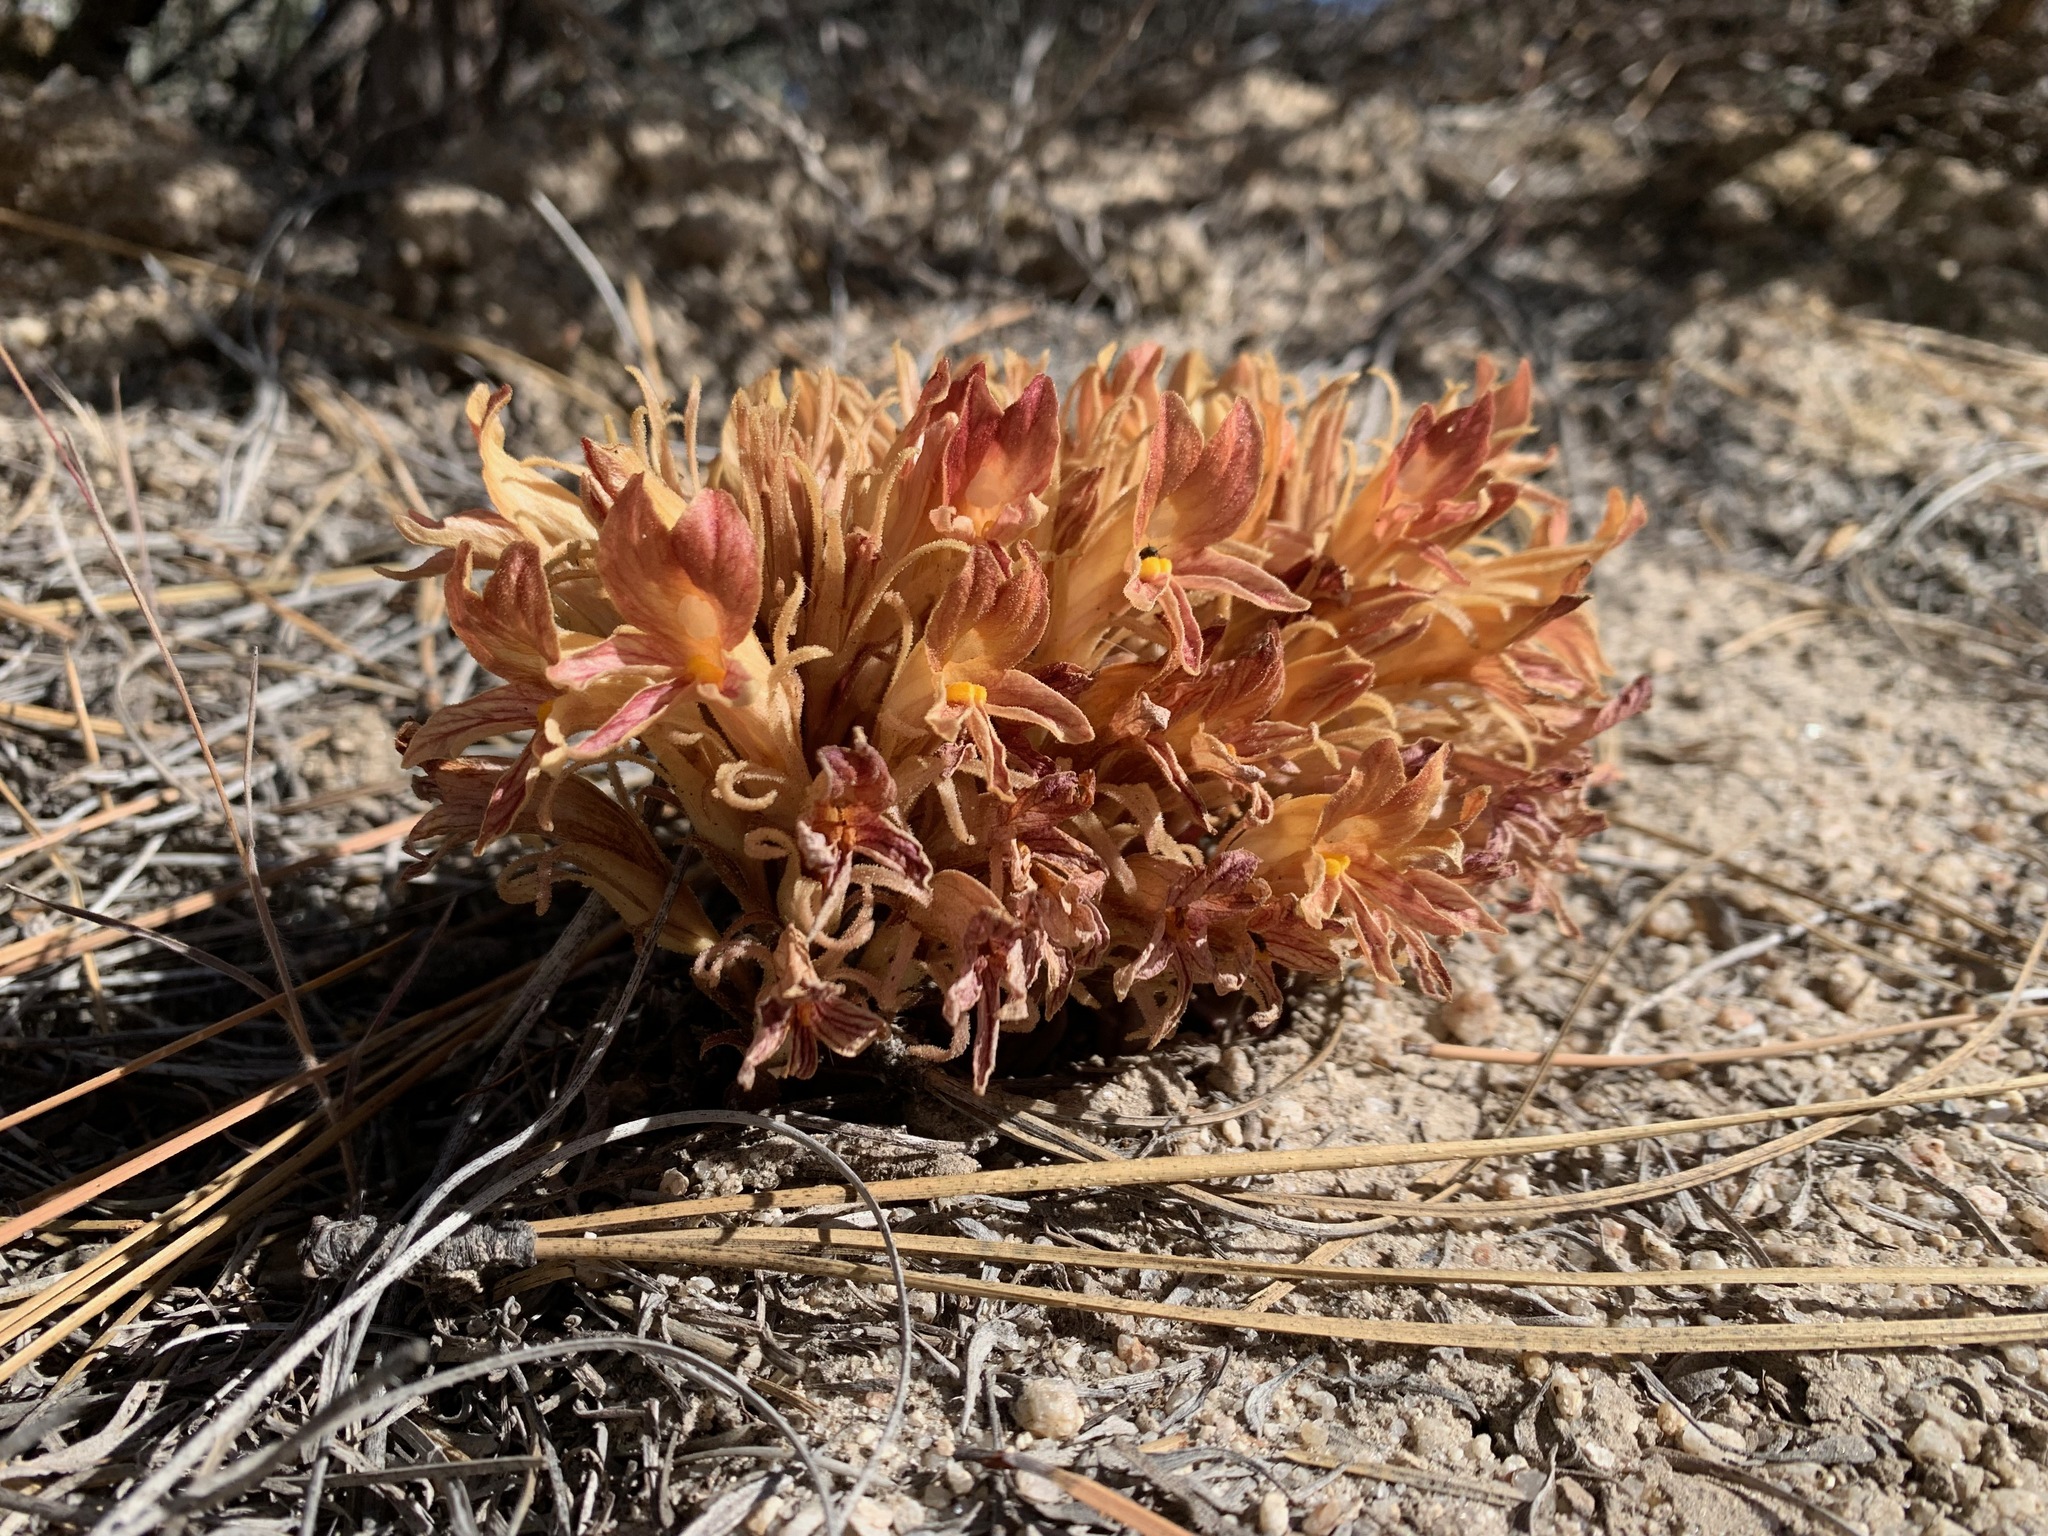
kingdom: Plantae
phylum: Tracheophyta
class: Magnoliopsida
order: Lamiales
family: Orobanchaceae
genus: Aphyllon
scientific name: Aphyllon californicum
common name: California broomrape
